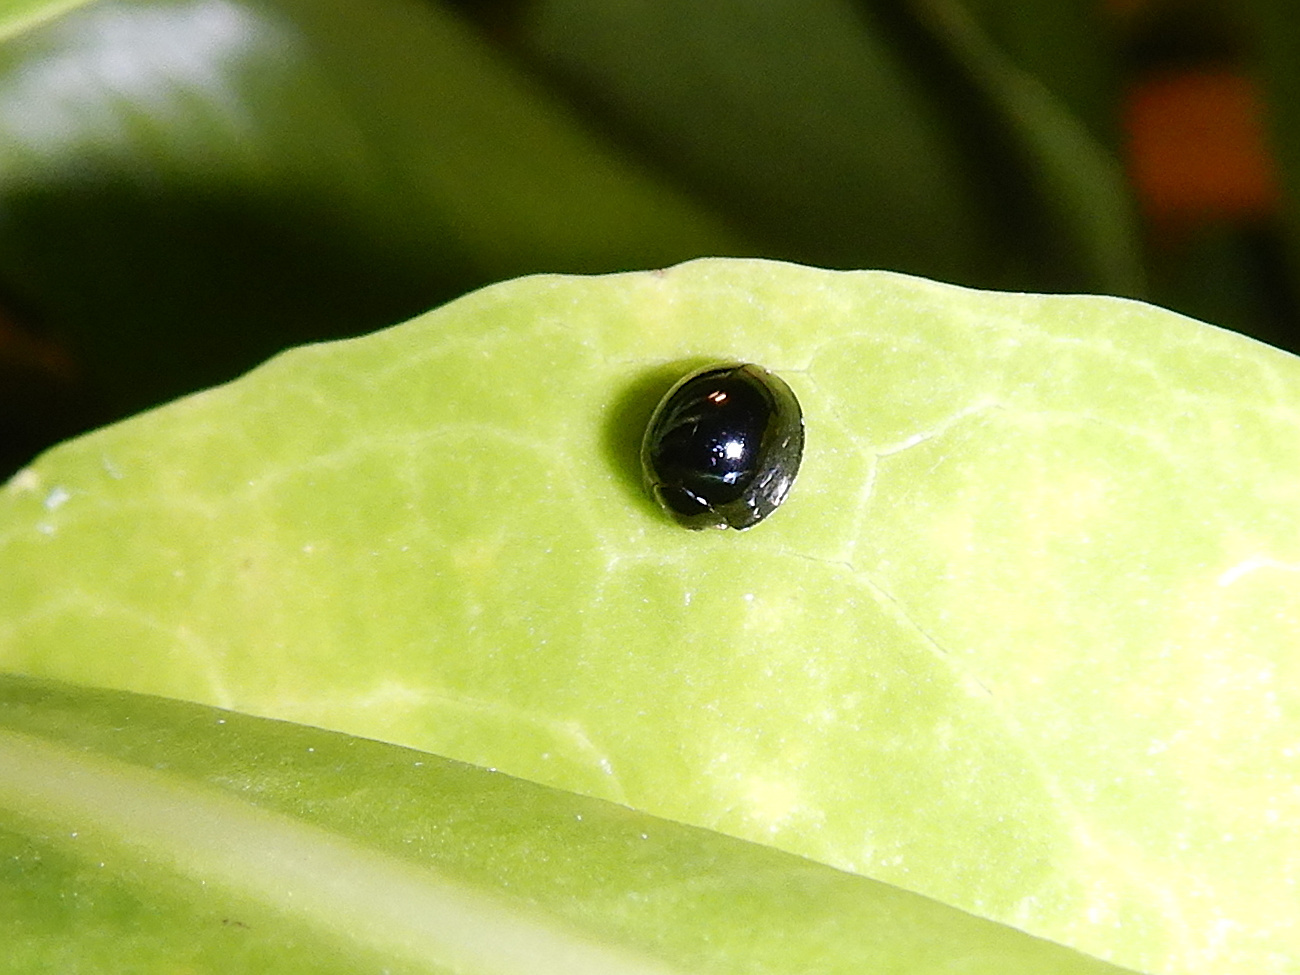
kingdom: Animalia
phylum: Arthropoda
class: Insecta
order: Coleoptera
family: Coccinellidae
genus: Chilocorus
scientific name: Chilocorus nigritus
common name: Ladybird beetle
